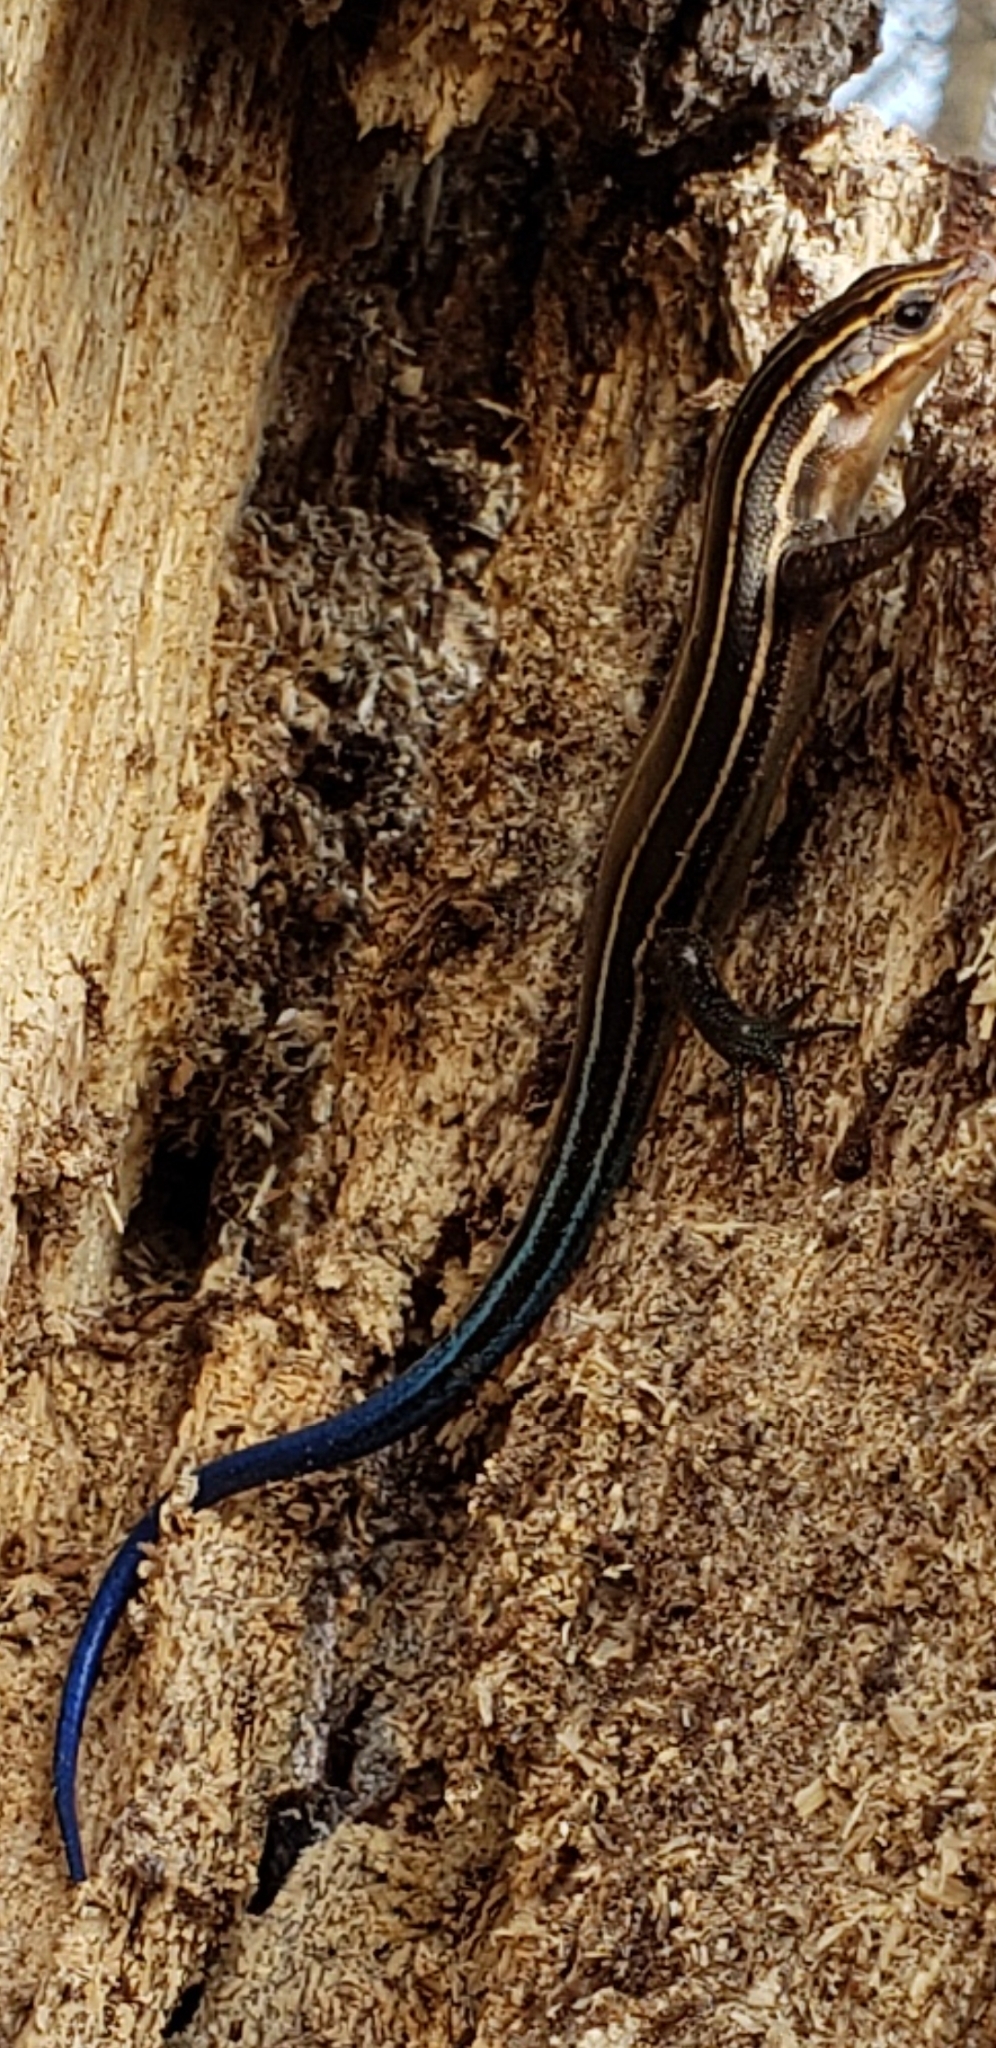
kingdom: Animalia
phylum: Chordata
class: Squamata
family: Scincidae
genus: Plestiodon
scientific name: Plestiodon laticeps
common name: Broadhead skink
